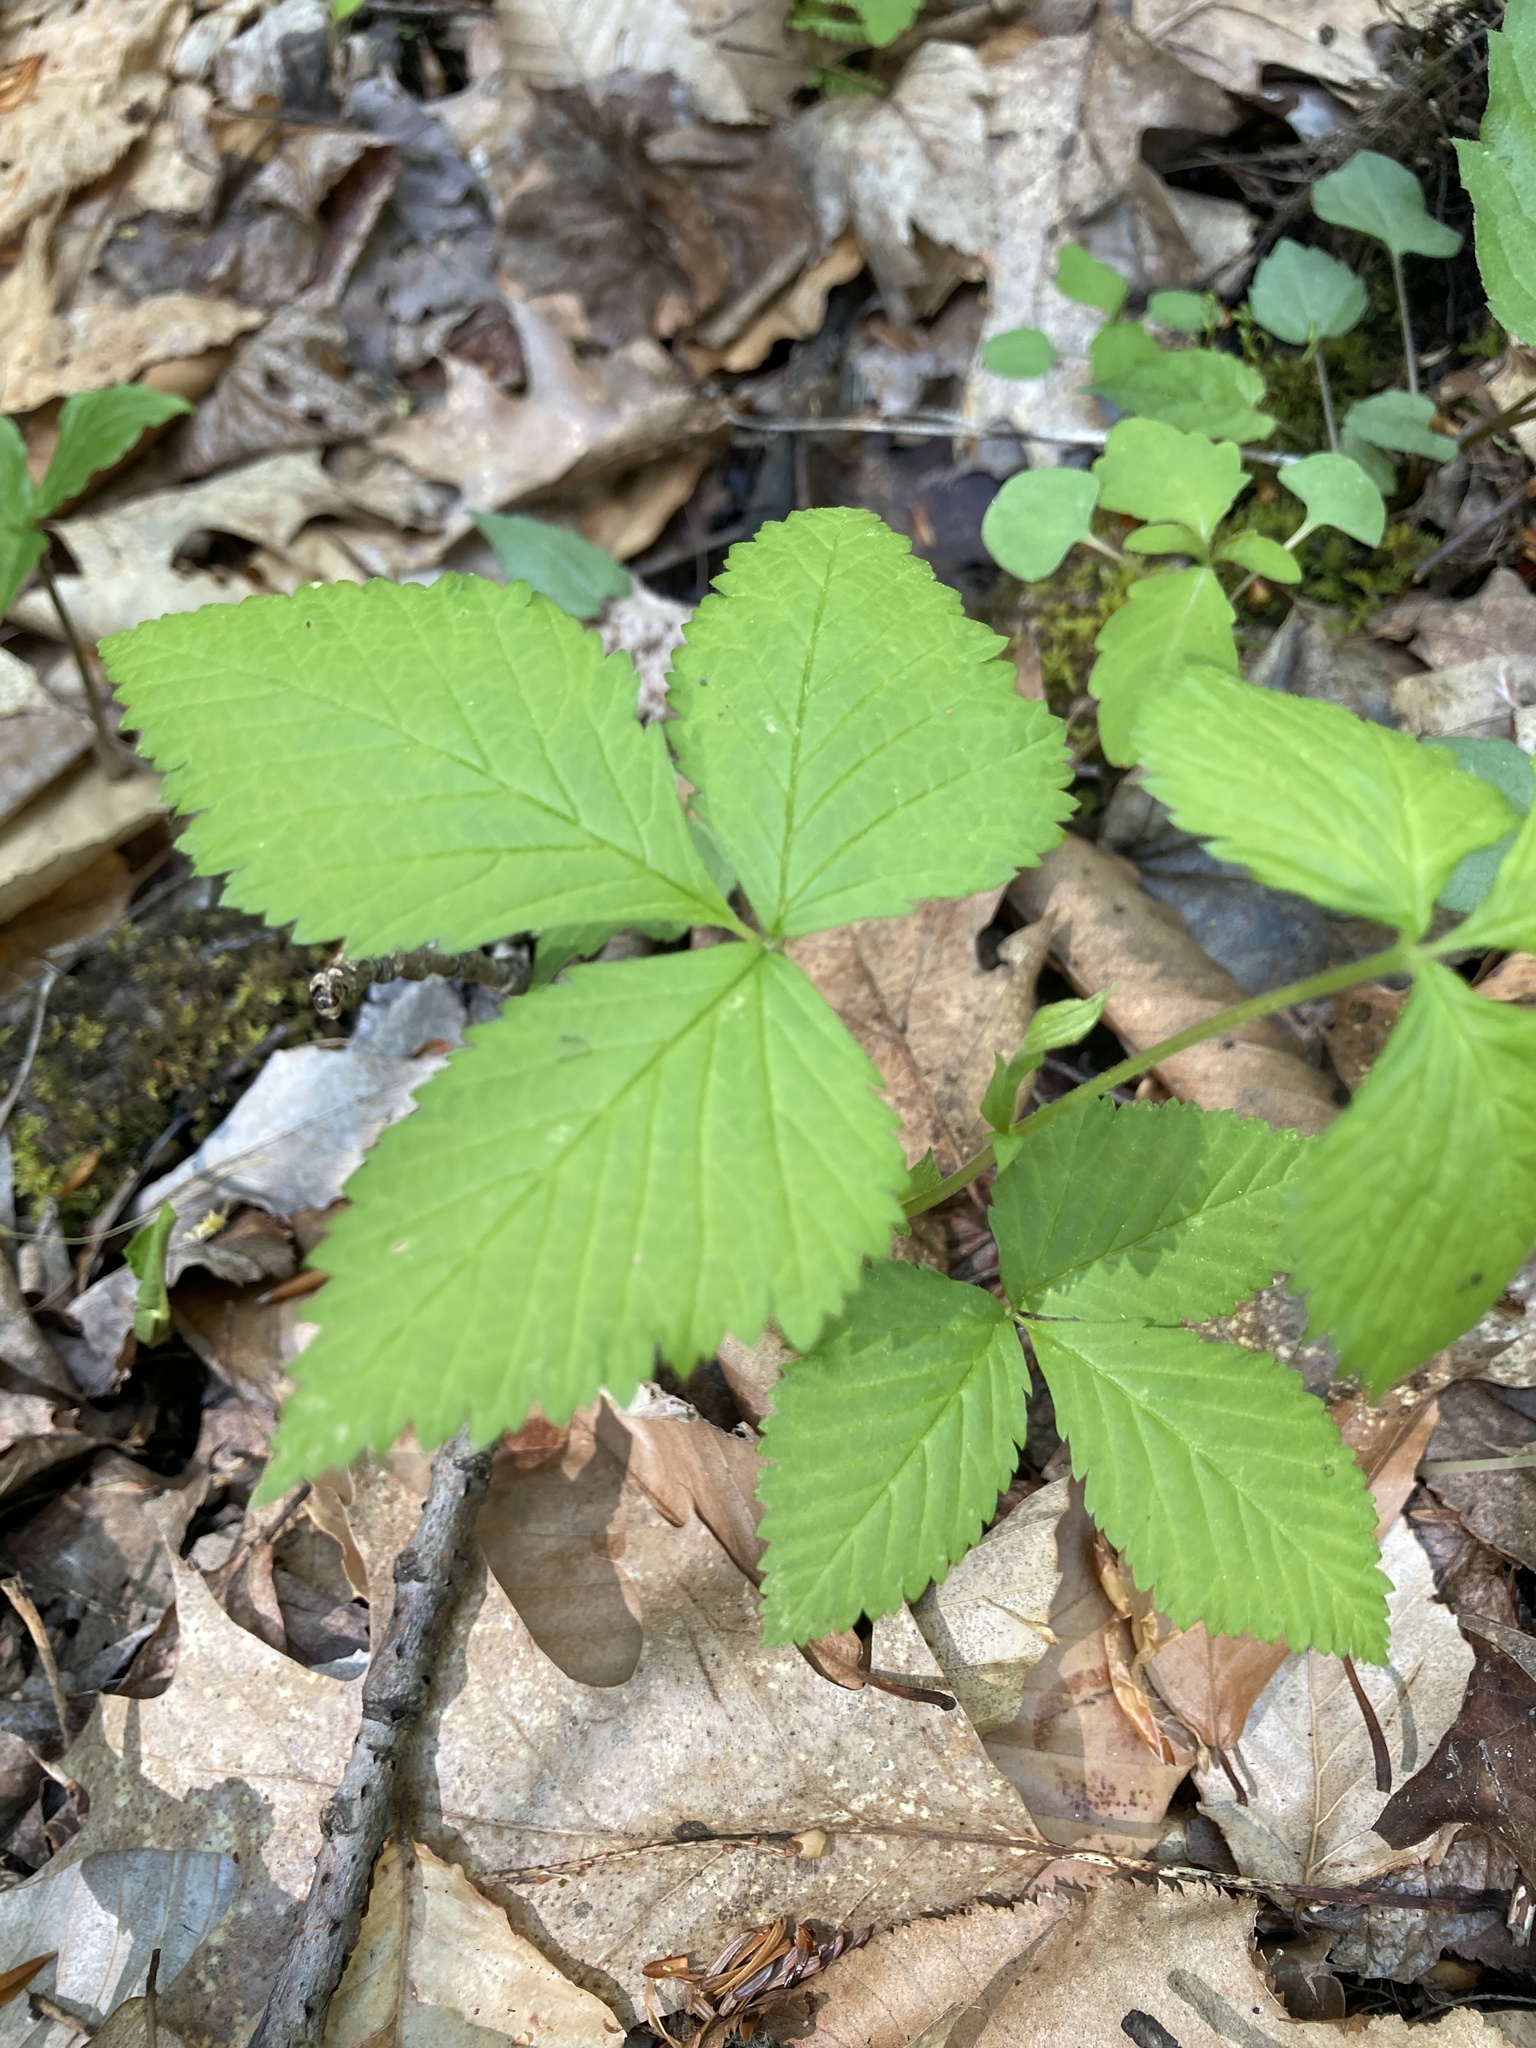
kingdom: Plantae
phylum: Tracheophyta
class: Magnoliopsida
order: Rosales
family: Rosaceae
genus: Rubus
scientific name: Rubus pubescens
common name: Dwarf raspberry
